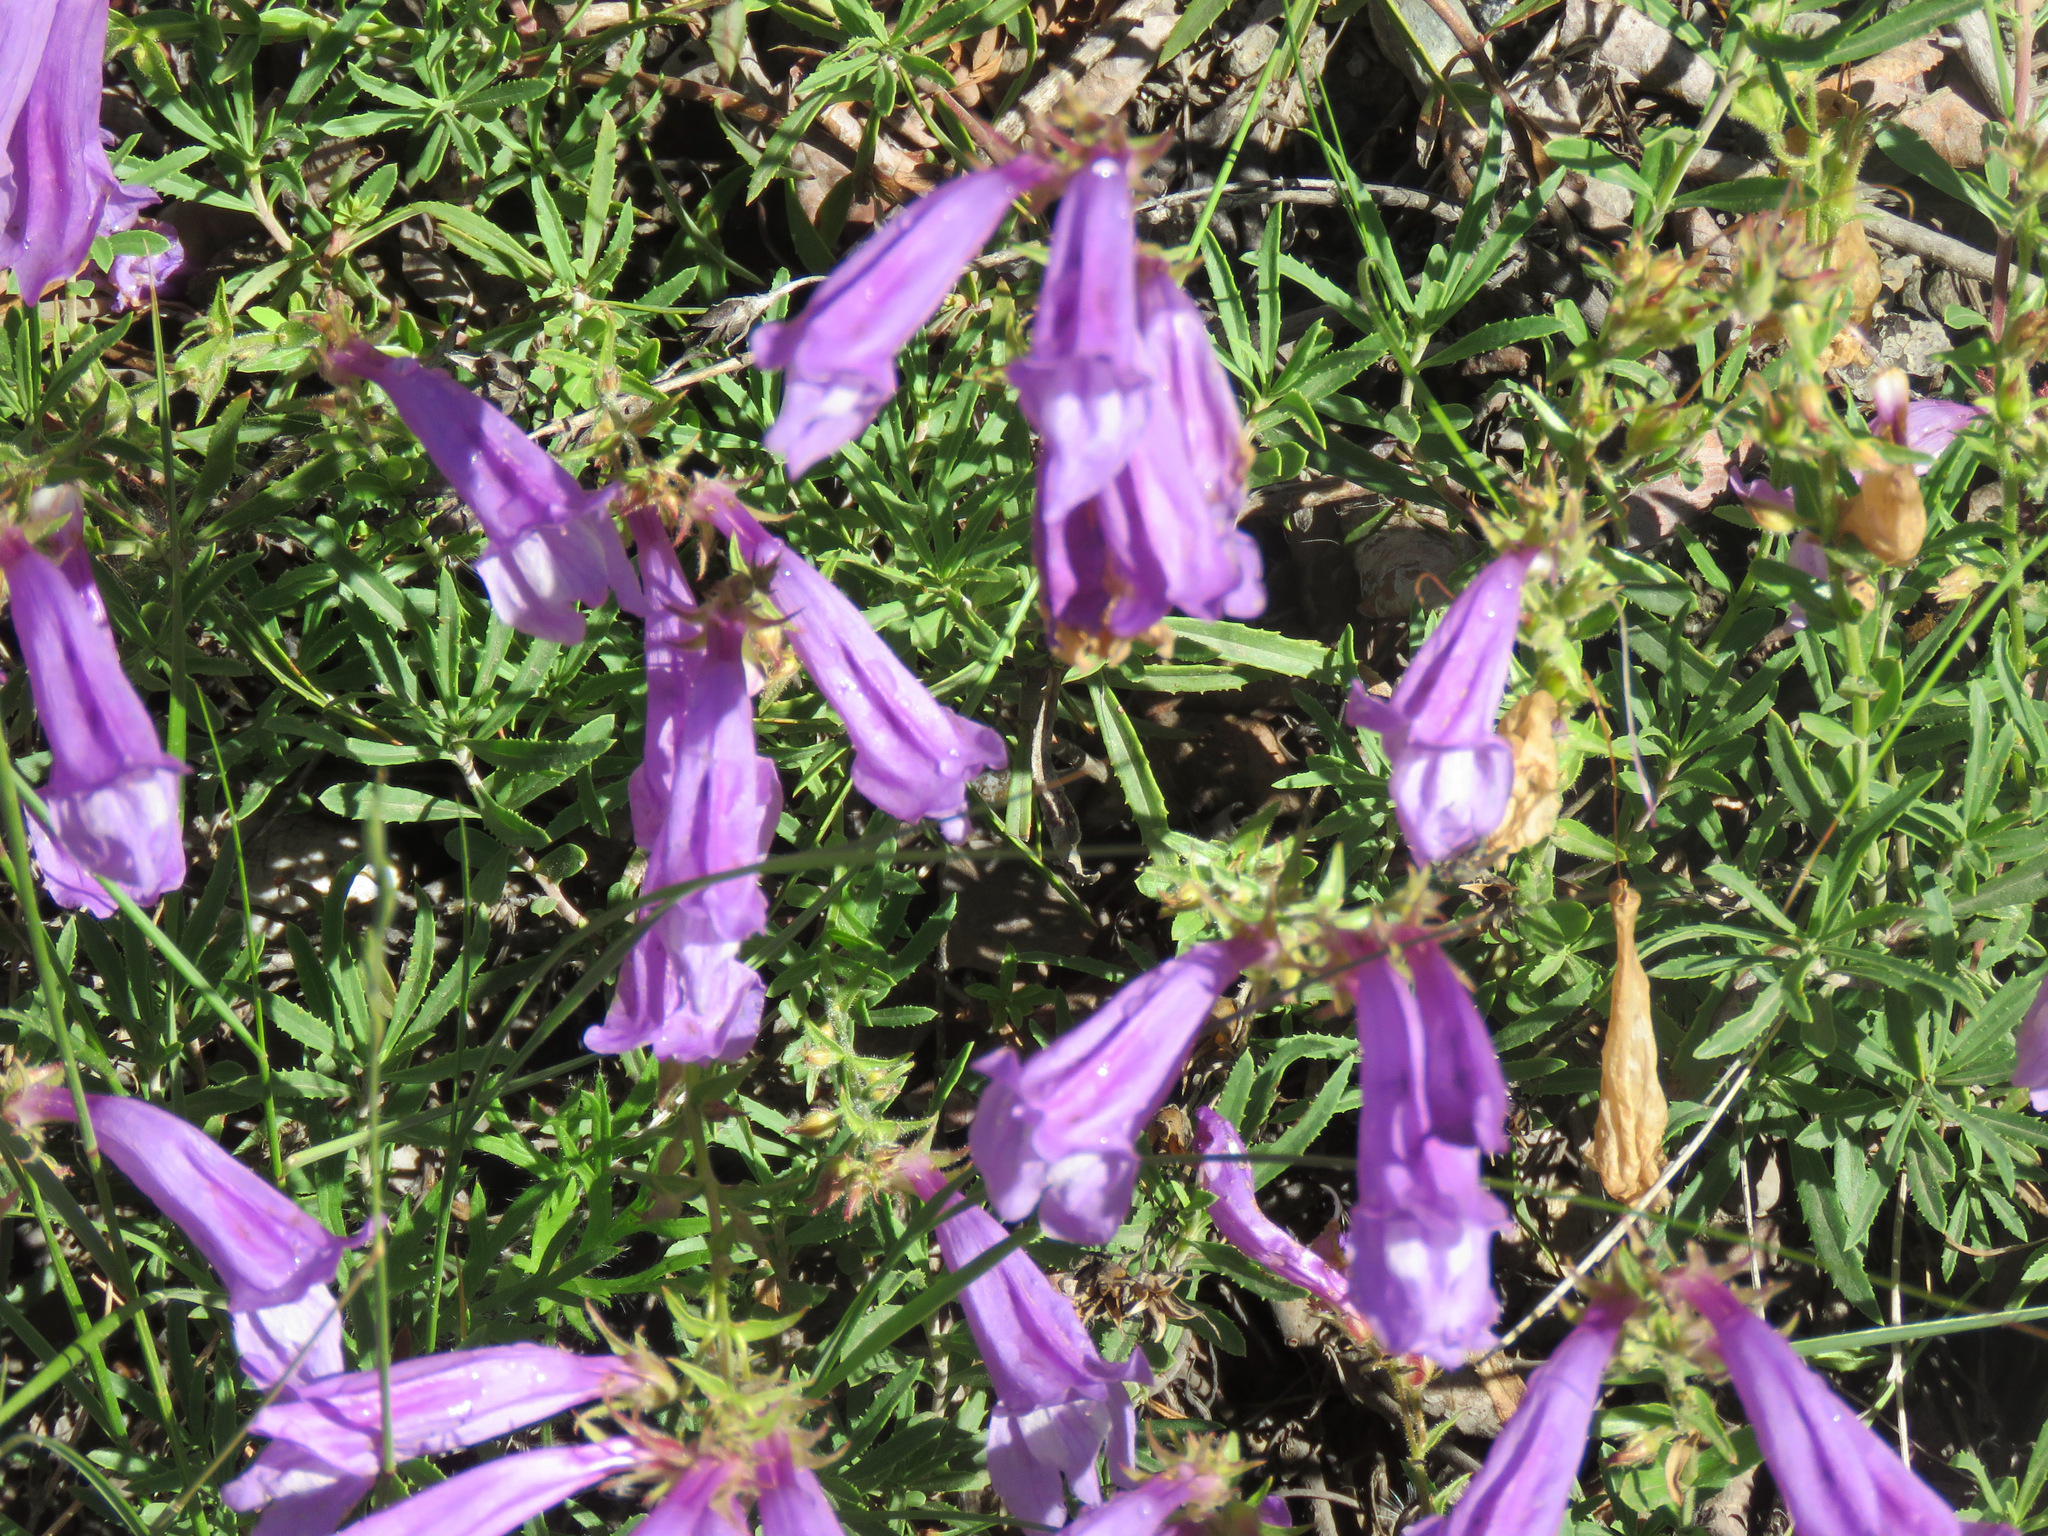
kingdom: Plantae
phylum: Tracheophyta
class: Magnoliopsida
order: Lamiales
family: Plantaginaceae
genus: Penstemon
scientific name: Penstemon fruticosus
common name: Bush penstemon
